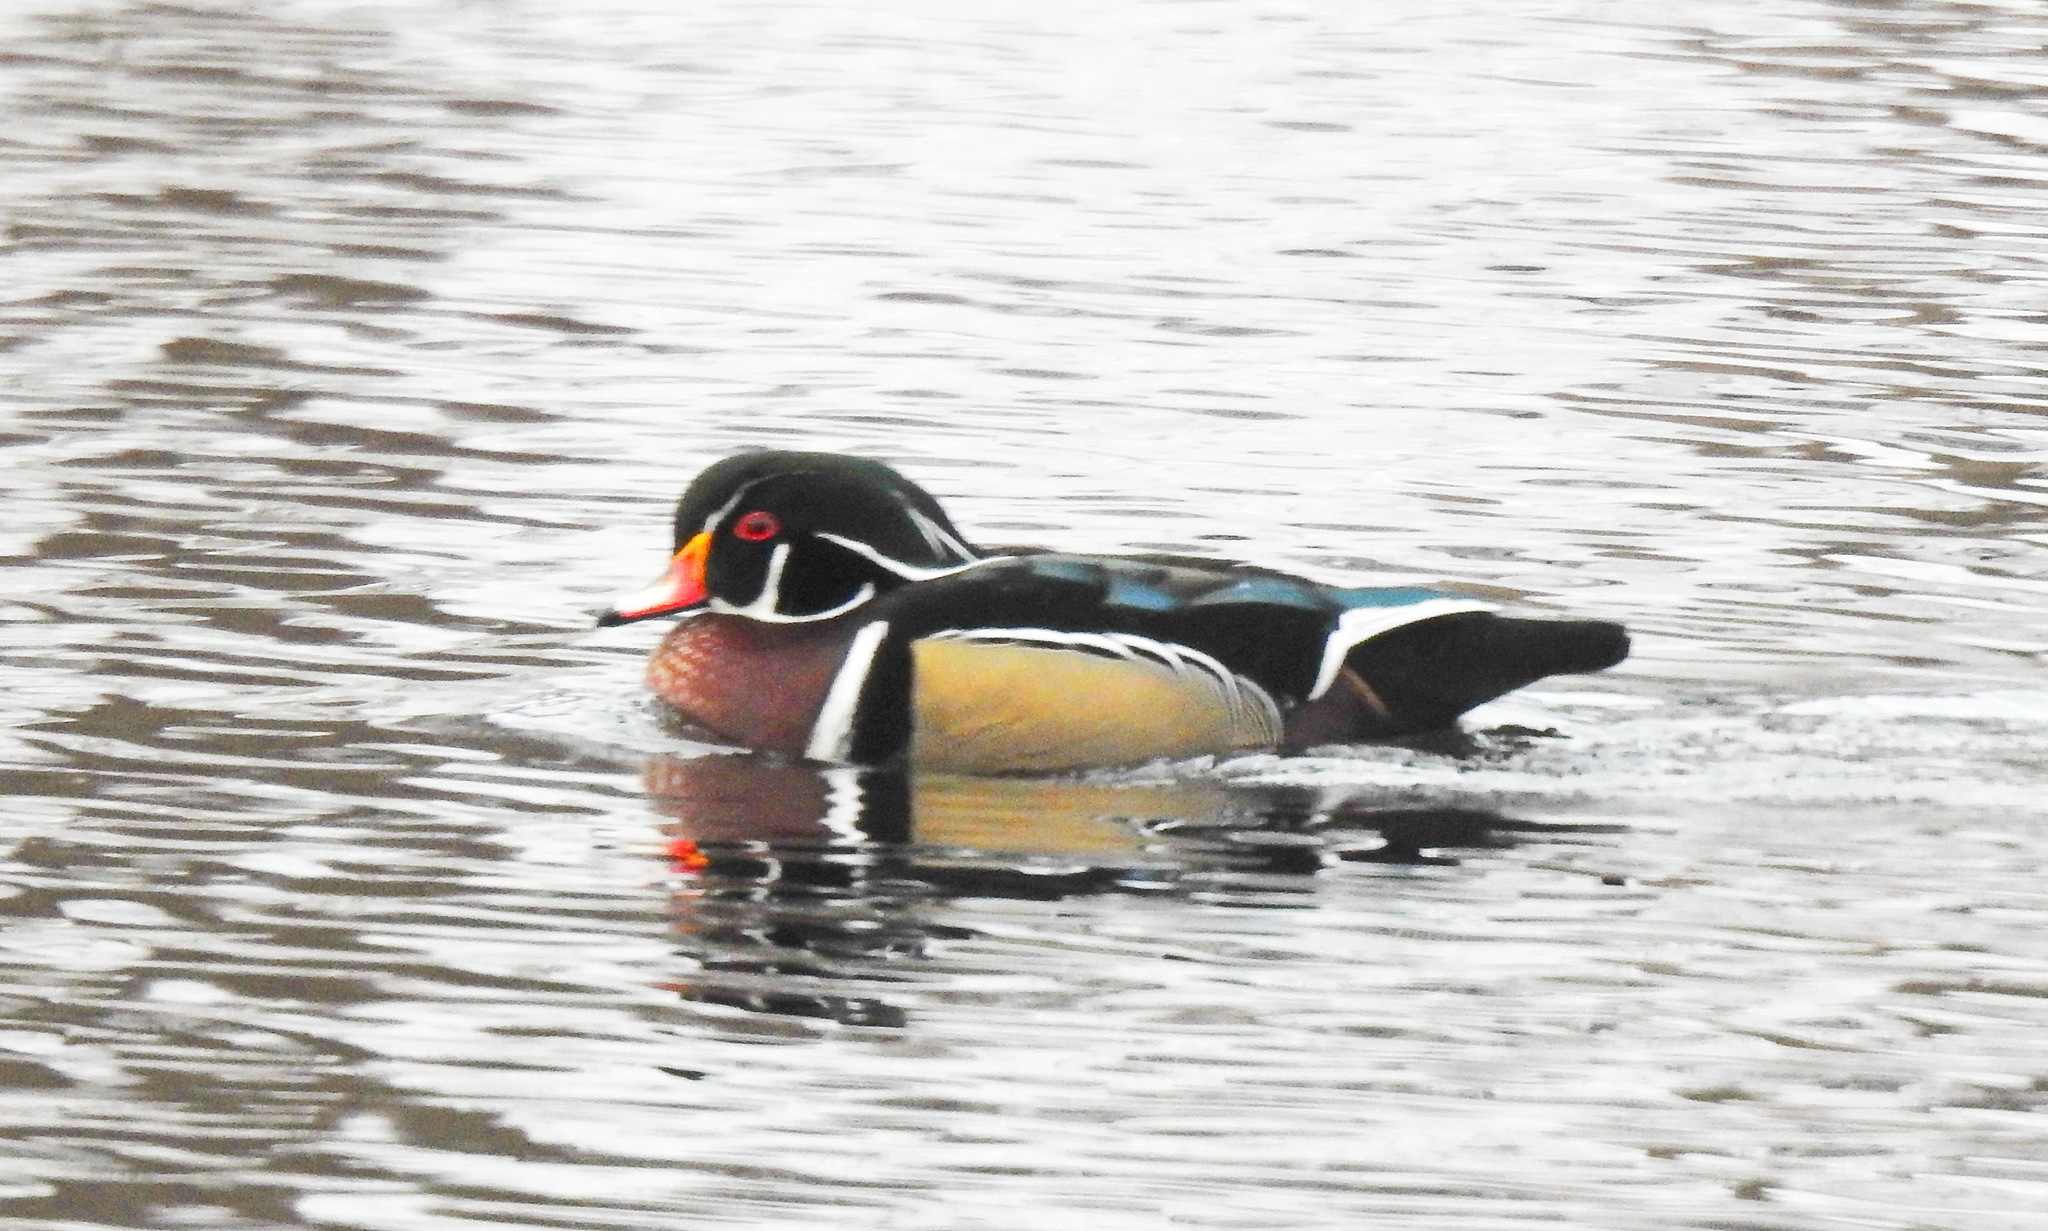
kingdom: Animalia
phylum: Chordata
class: Aves
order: Anseriformes
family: Anatidae
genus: Aix
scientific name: Aix sponsa
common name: Wood duck
